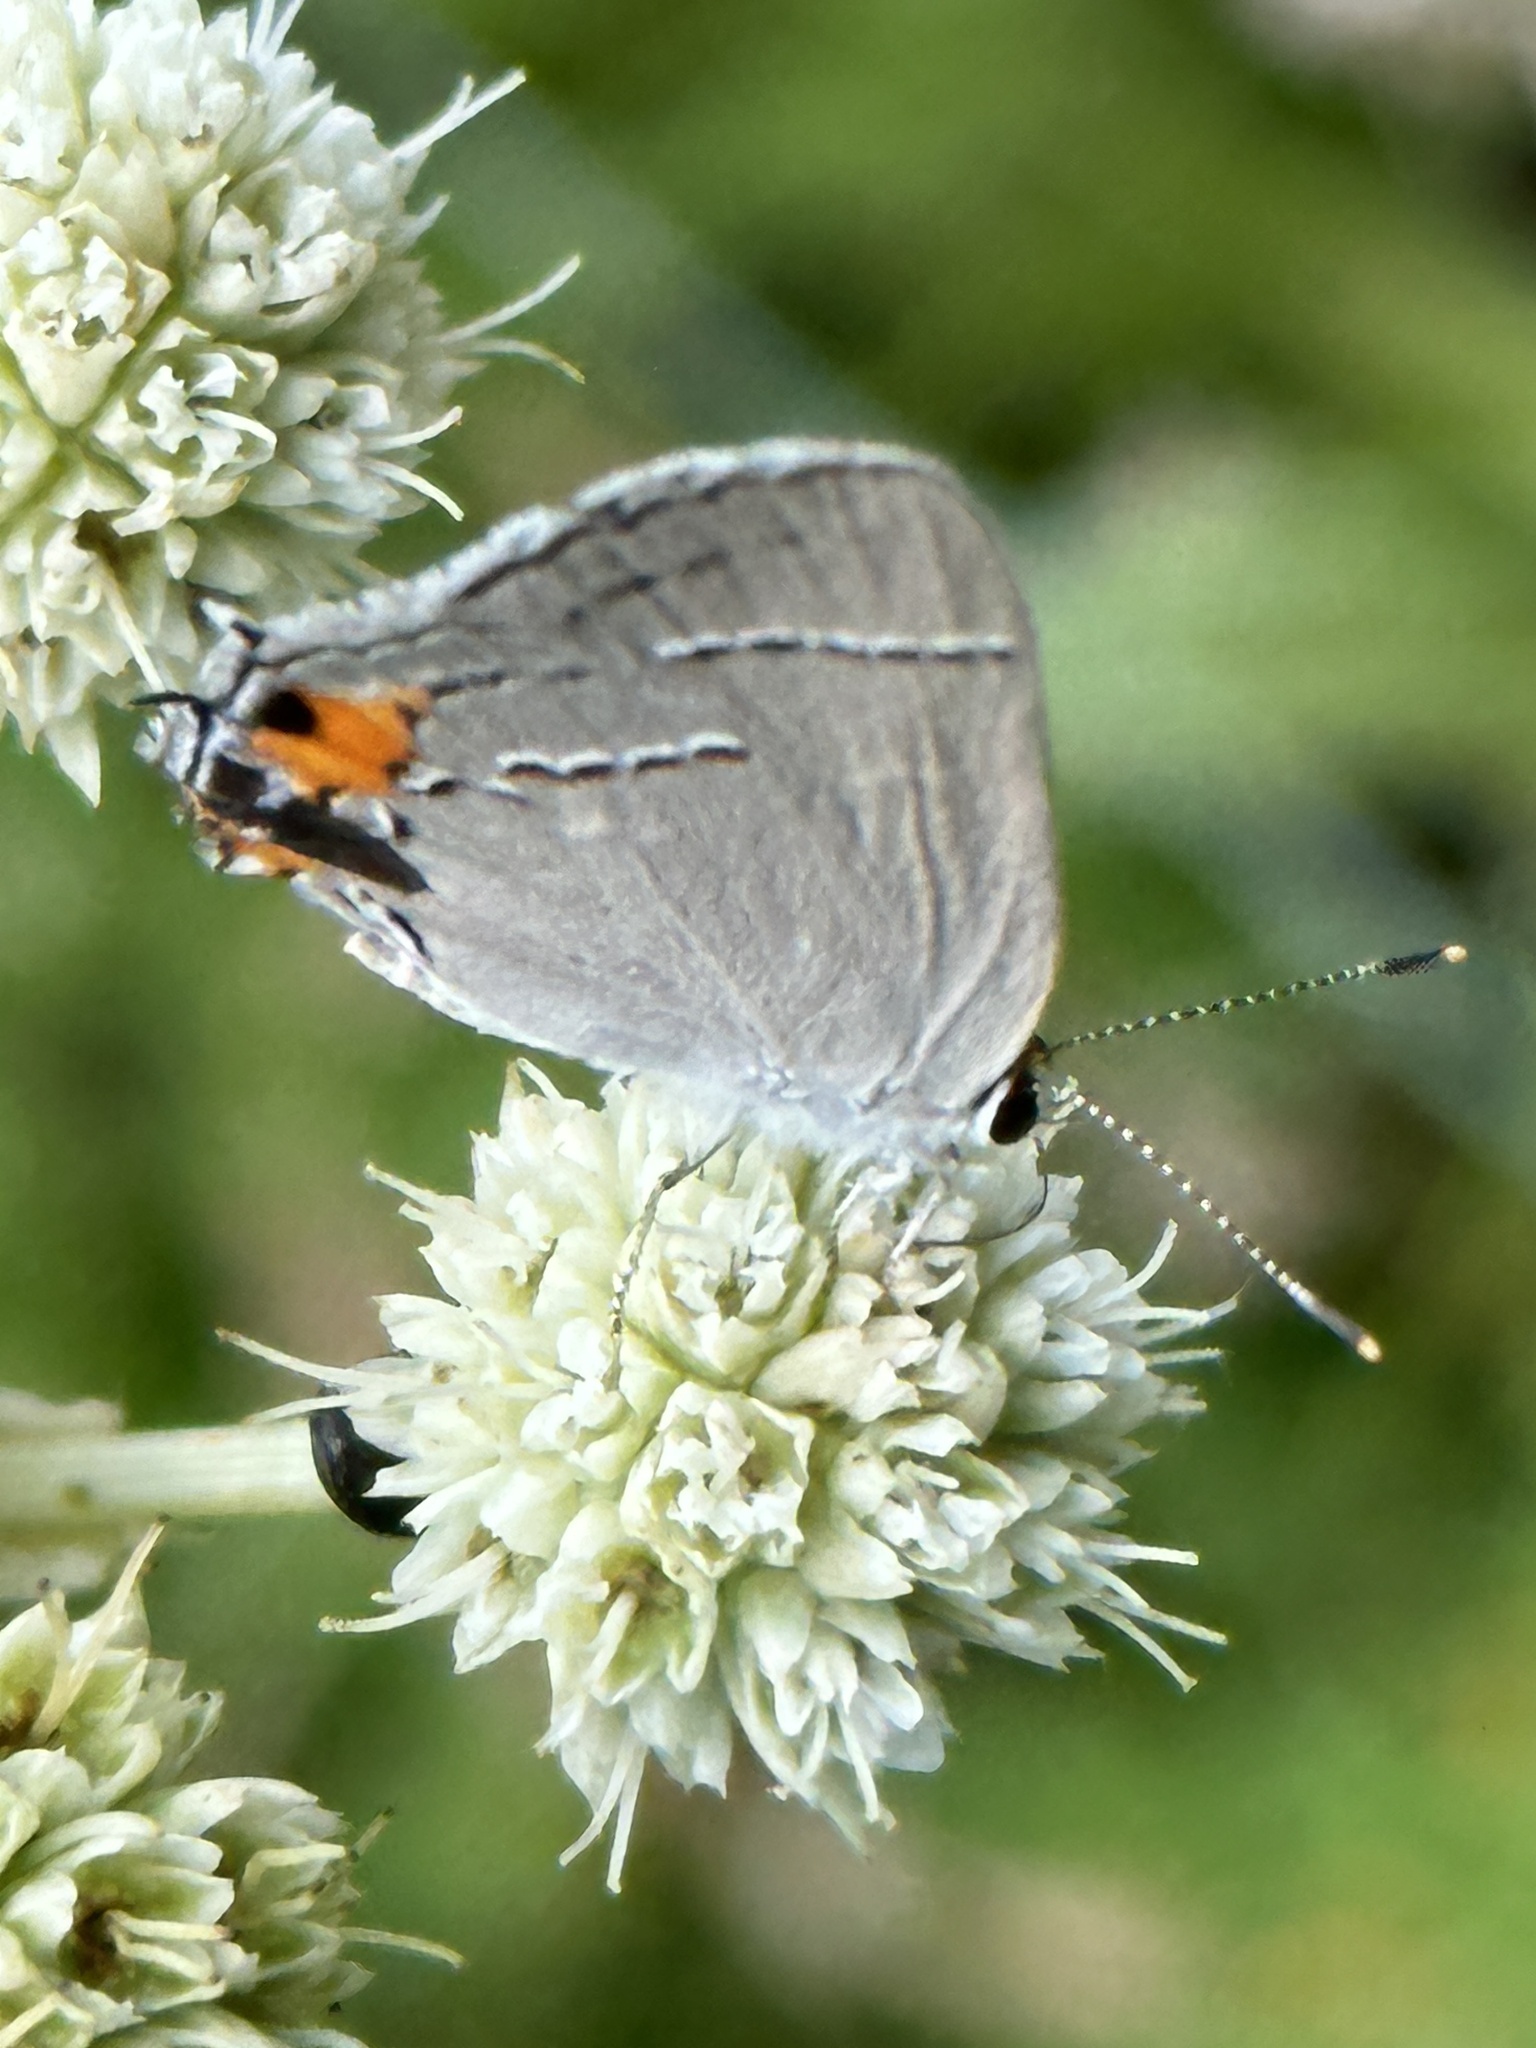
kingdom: Animalia
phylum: Arthropoda
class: Insecta
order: Lepidoptera
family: Lycaenidae
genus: Strymon
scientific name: Strymon melinus
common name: Gray hairstreak
